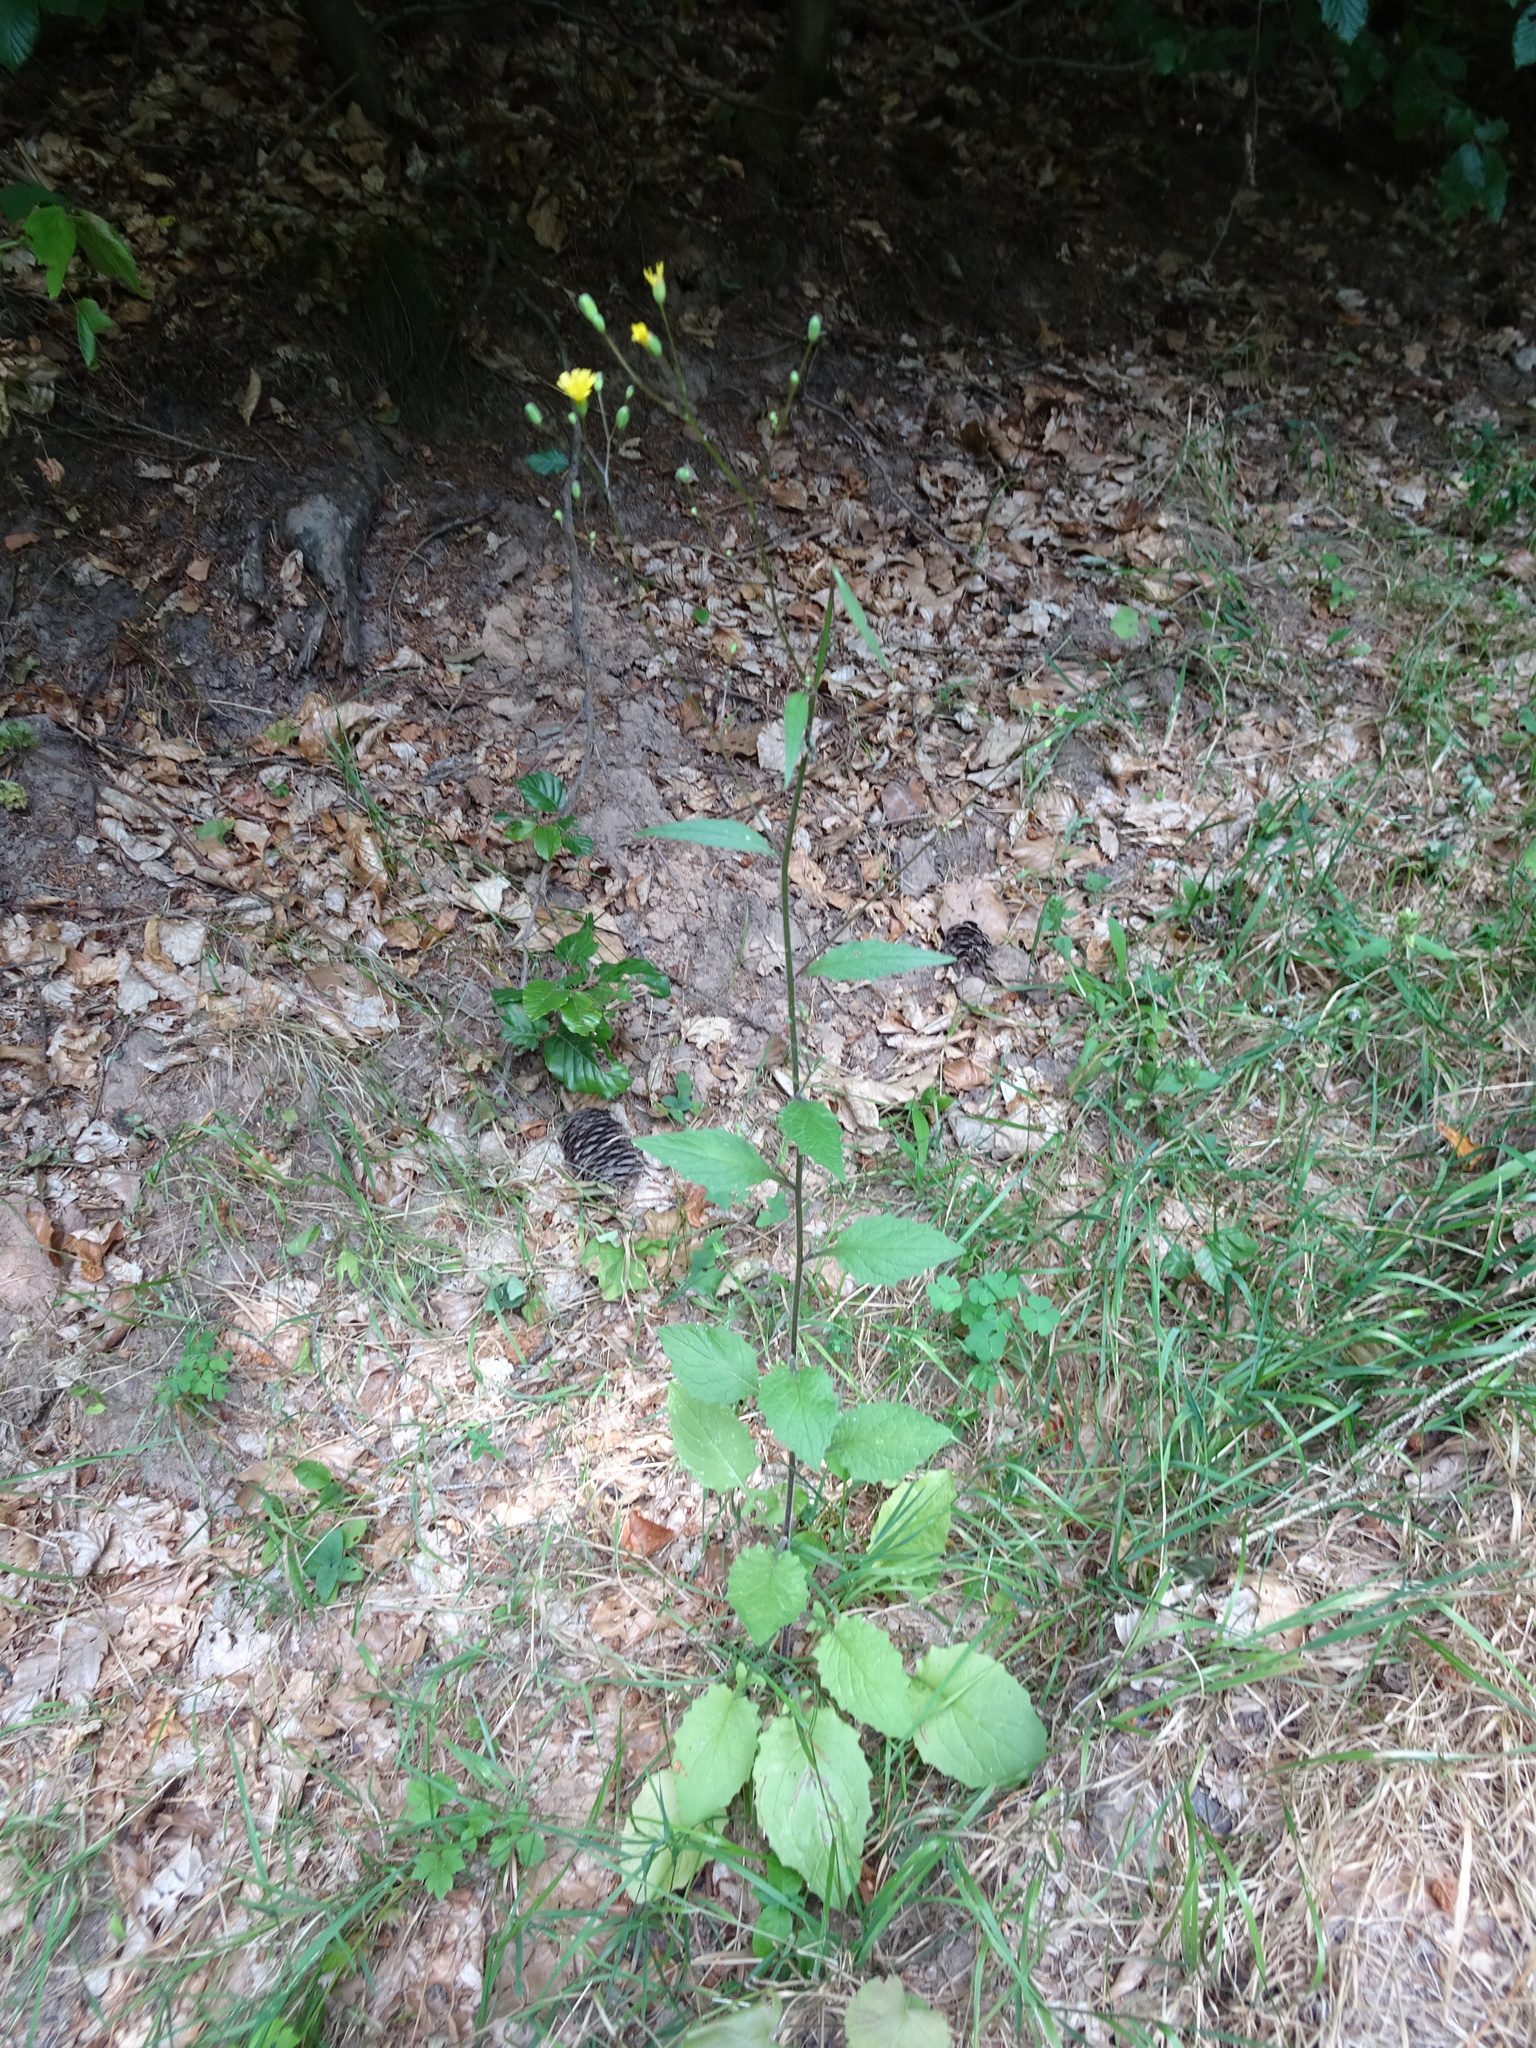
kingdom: Plantae
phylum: Tracheophyta
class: Magnoliopsida
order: Asterales
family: Asteraceae
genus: Lapsana
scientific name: Lapsana communis
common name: Nipplewort
